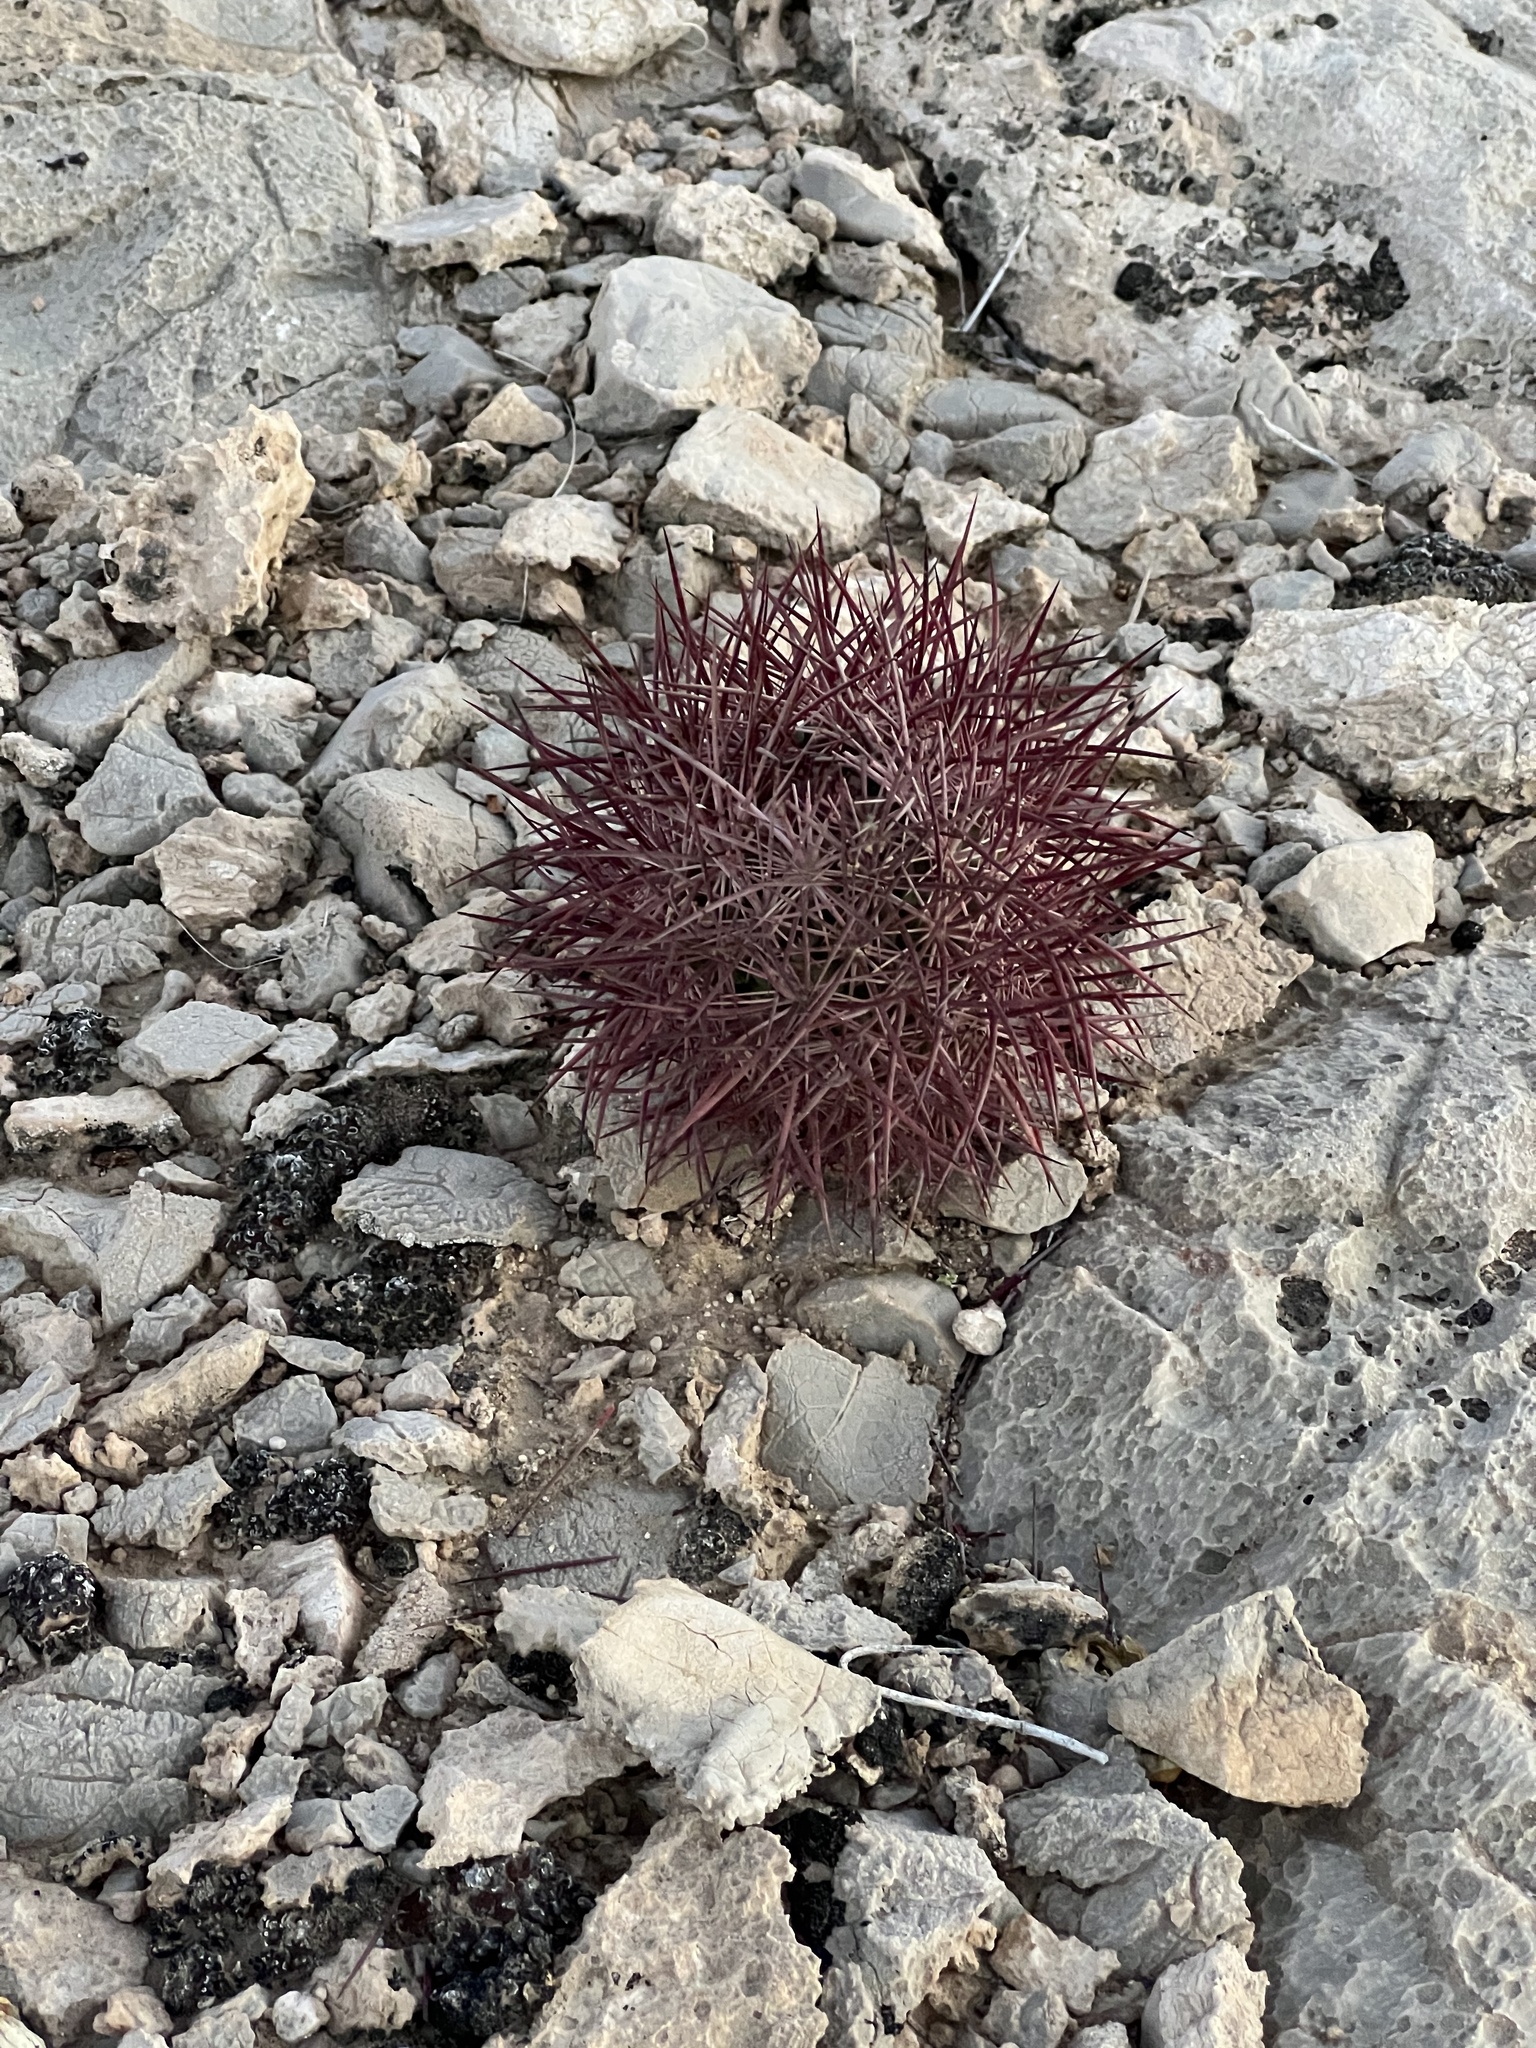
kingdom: Plantae
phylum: Tracheophyta
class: Magnoliopsida
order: Caryophyllales
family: Cactaceae
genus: Sclerocactus
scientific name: Sclerocactus johnsonii
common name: Eight-spine fishhook cactus
